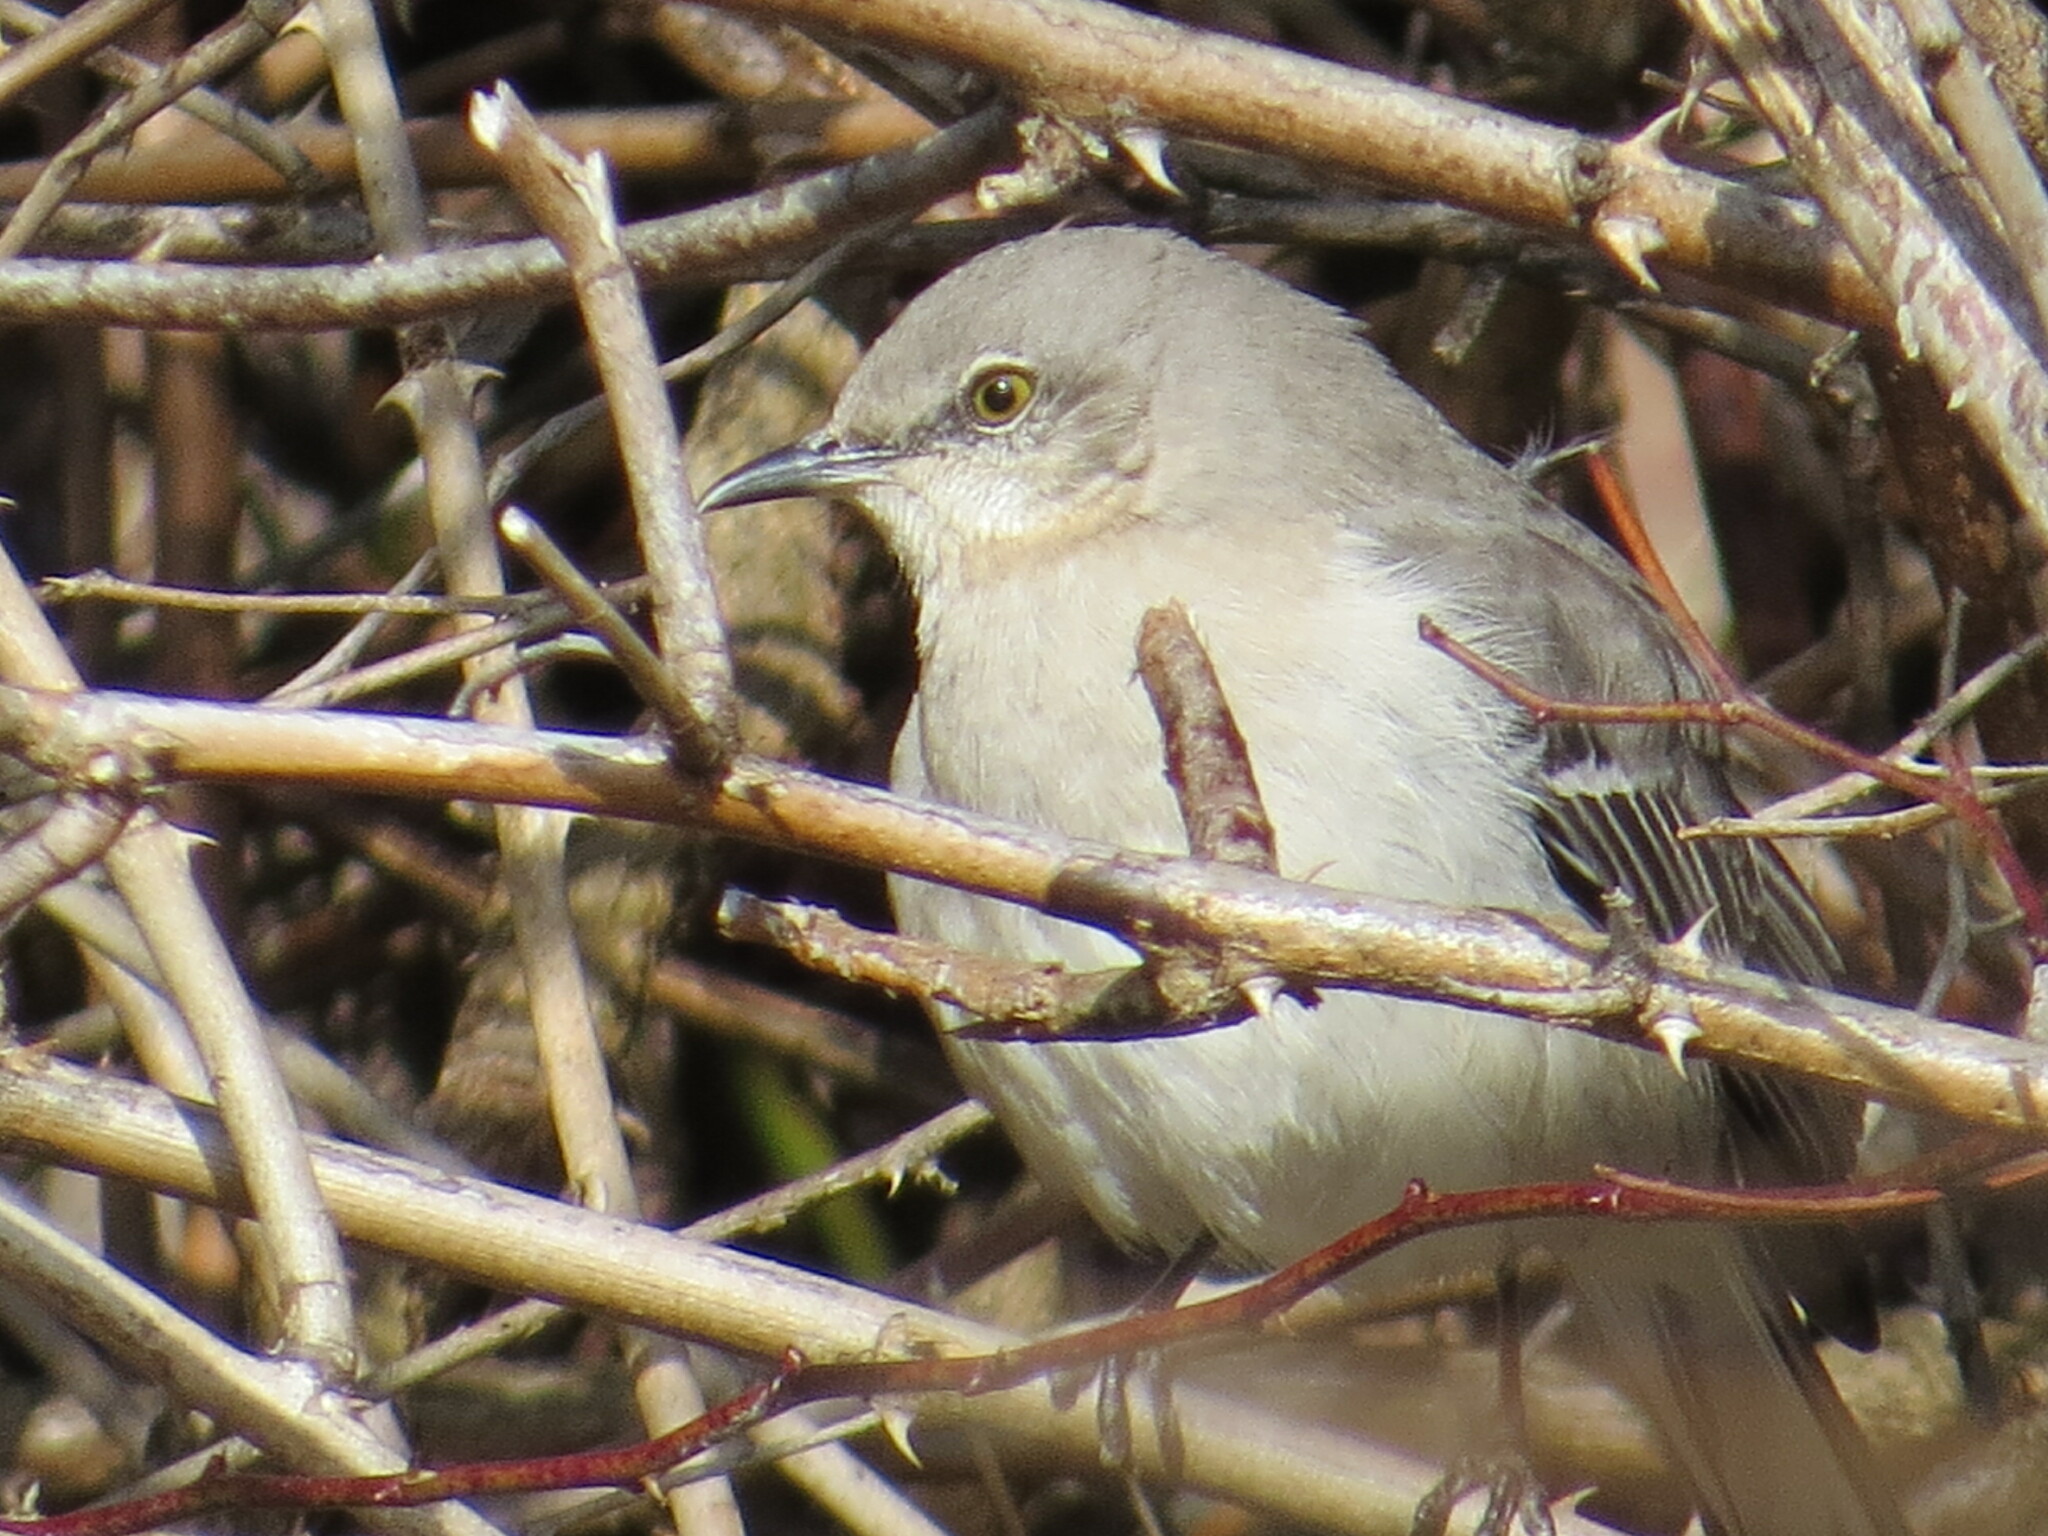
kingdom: Animalia
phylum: Chordata
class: Aves
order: Passeriformes
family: Mimidae
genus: Mimus
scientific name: Mimus polyglottos
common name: Northern mockingbird
